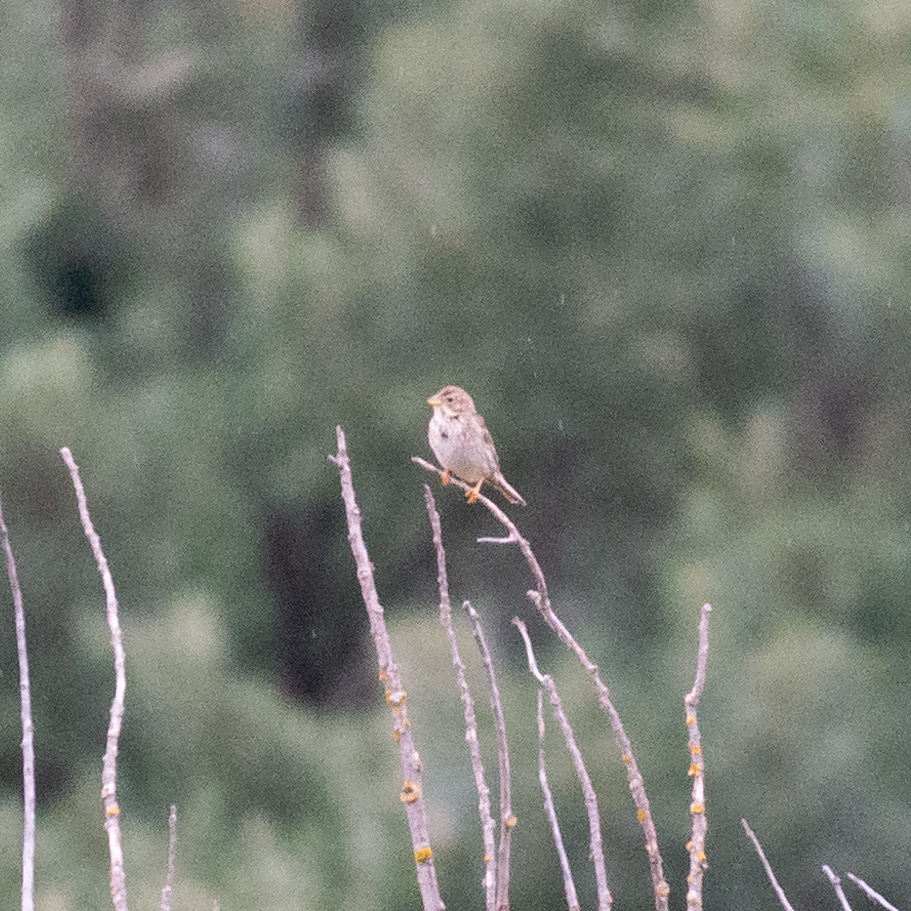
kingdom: Animalia
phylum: Chordata
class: Aves
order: Passeriformes
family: Emberizidae
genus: Emberiza
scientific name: Emberiza calandra
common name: Corn bunting
